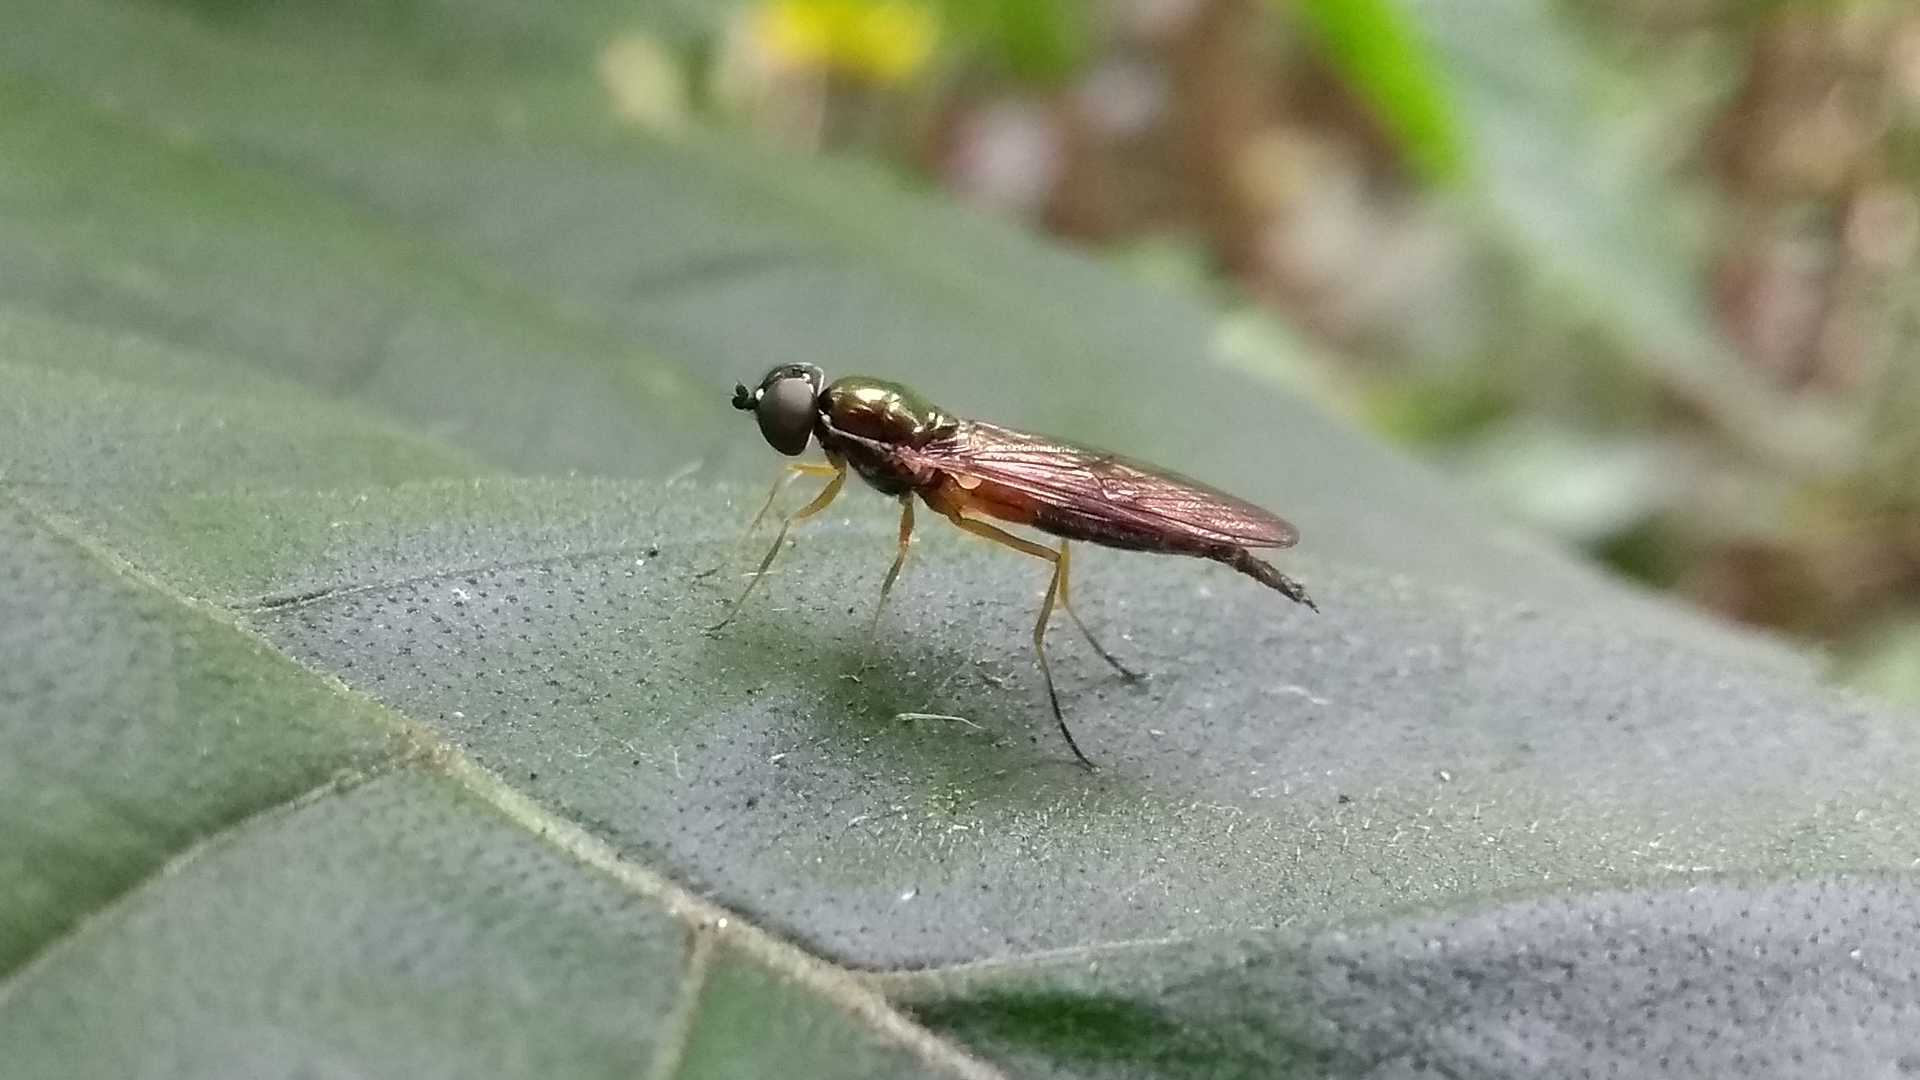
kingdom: Animalia
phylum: Arthropoda
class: Insecta
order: Diptera
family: Stratiomyidae
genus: Sargus
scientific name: Sargus bipunctatus
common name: Twin-spot centurion
